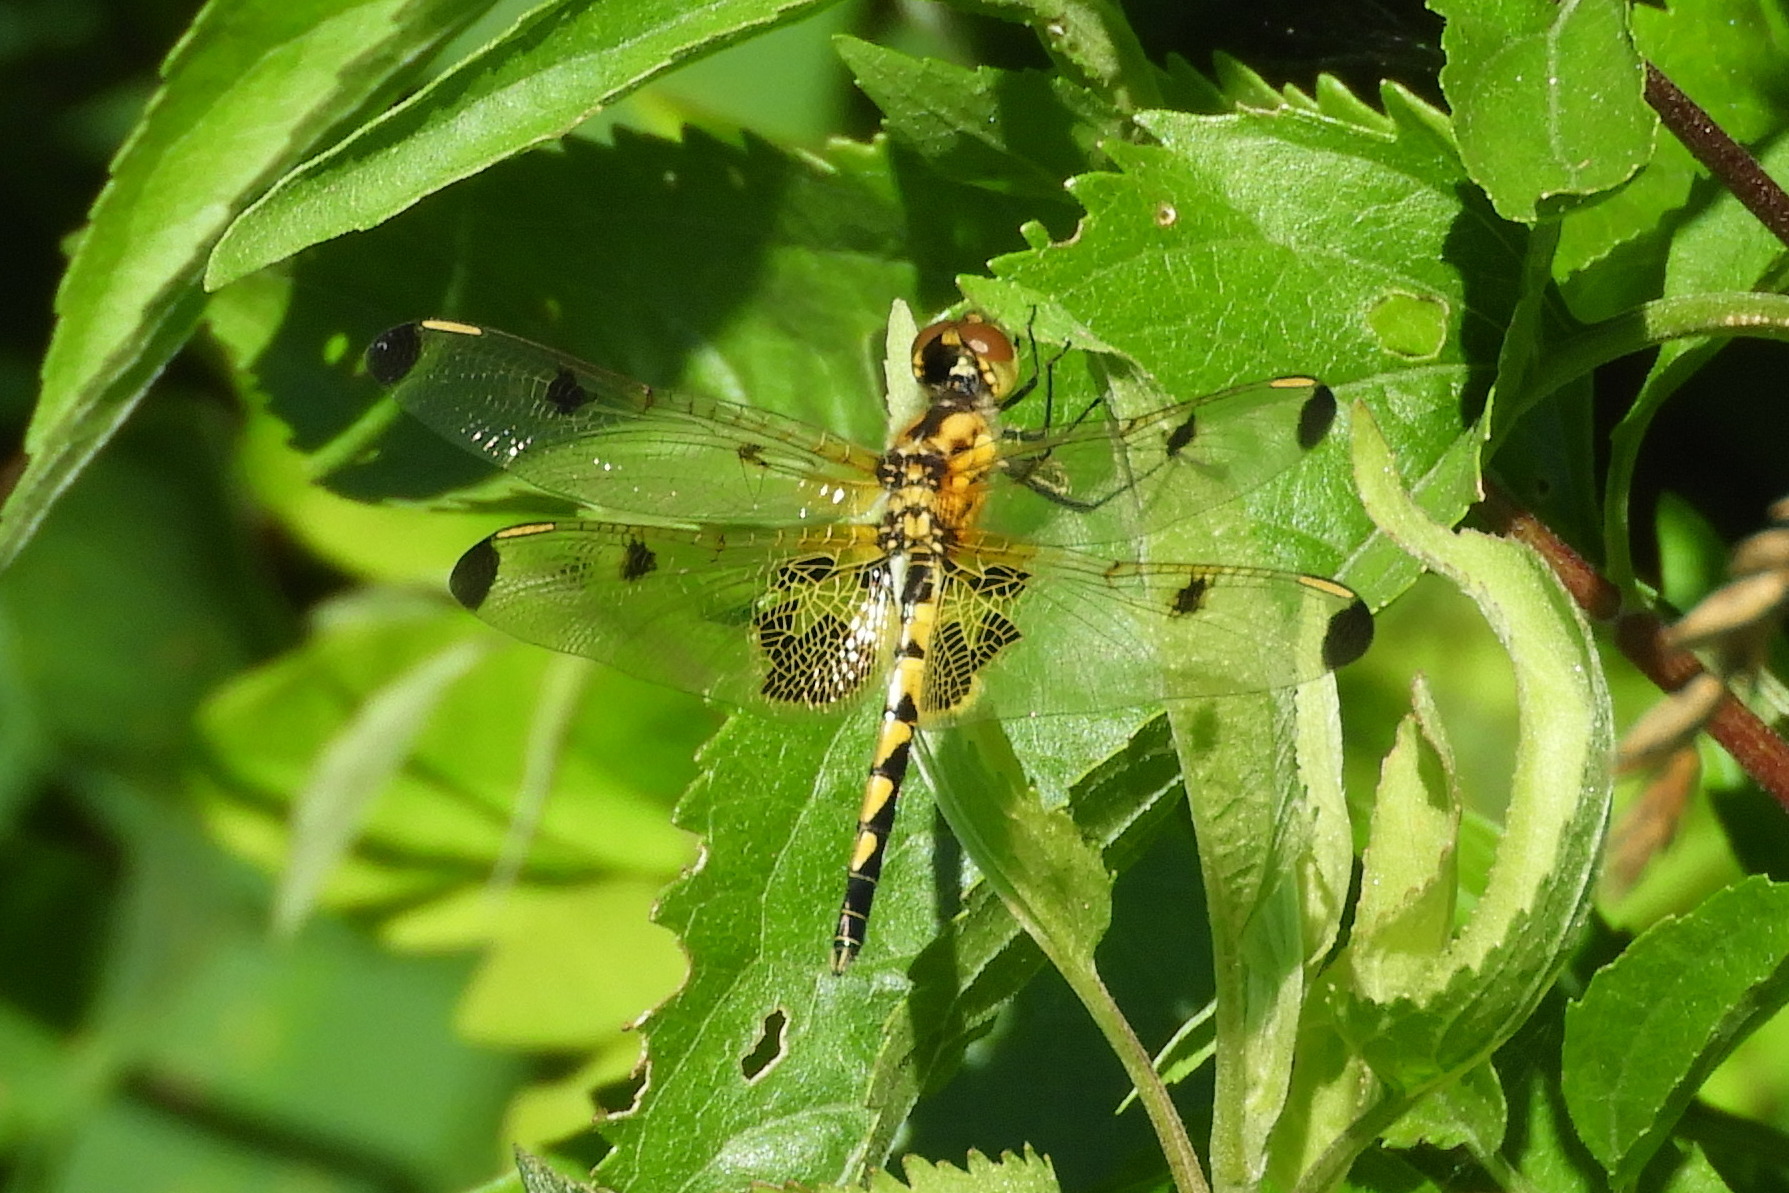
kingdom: Animalia
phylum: Arthropoda
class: Insecta
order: Odonata
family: Libellulidae
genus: Celithemis
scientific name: Celithemis elisa
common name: Calico pennant
